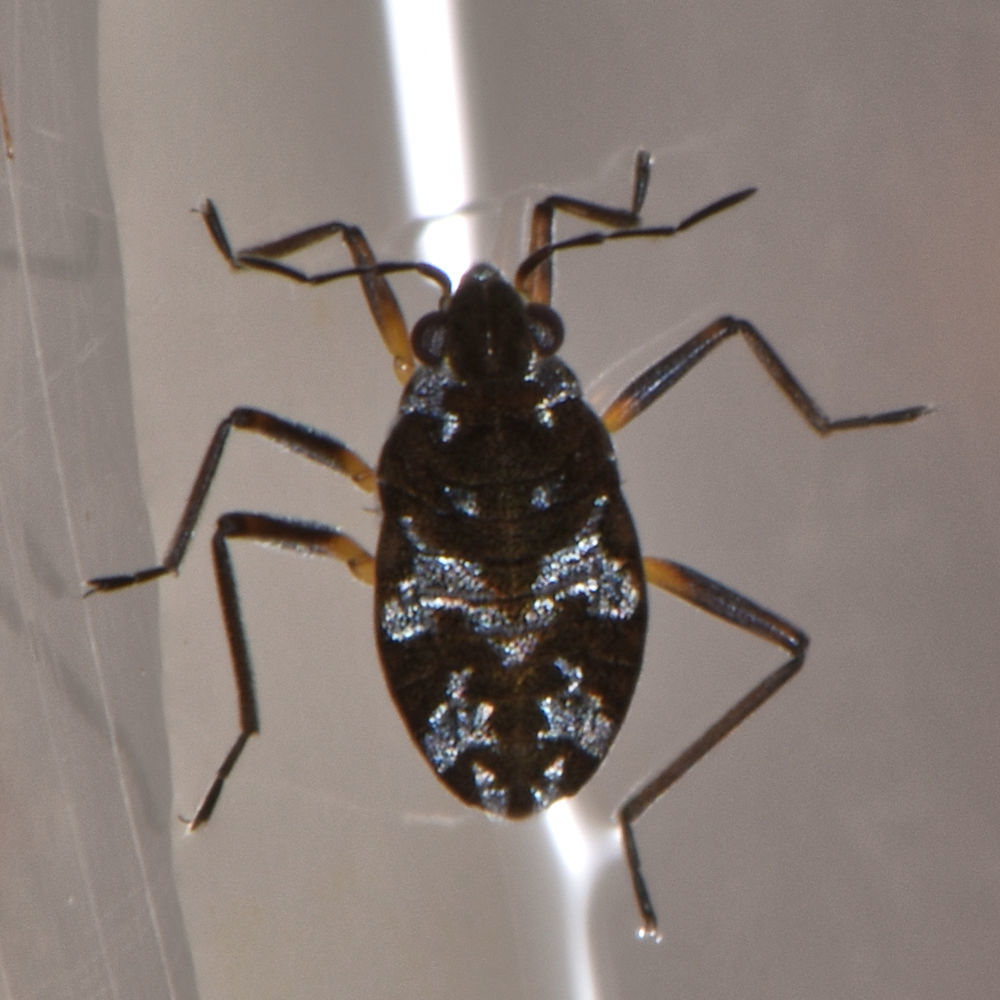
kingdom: Animalia
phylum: Arthropoda
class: Insecta
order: Hemiptera
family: Veliidae
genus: Microvelia
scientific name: Microvelia americana
